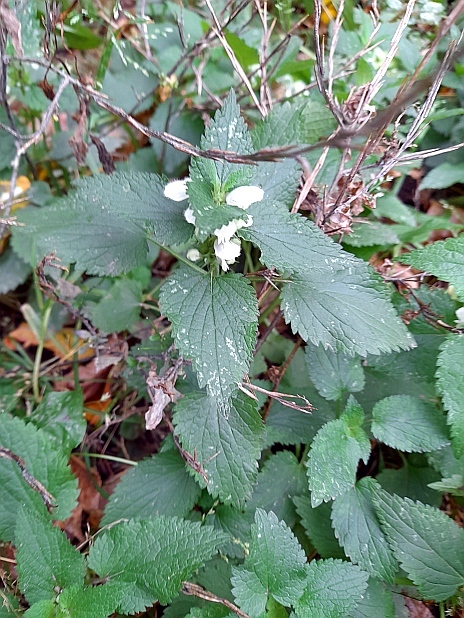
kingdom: Plantae
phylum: Tracheophyta
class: Magnoliopsida
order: Lamiales
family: Lamiaceae
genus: Lamium
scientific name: Lamium album
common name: White dead-nettle
